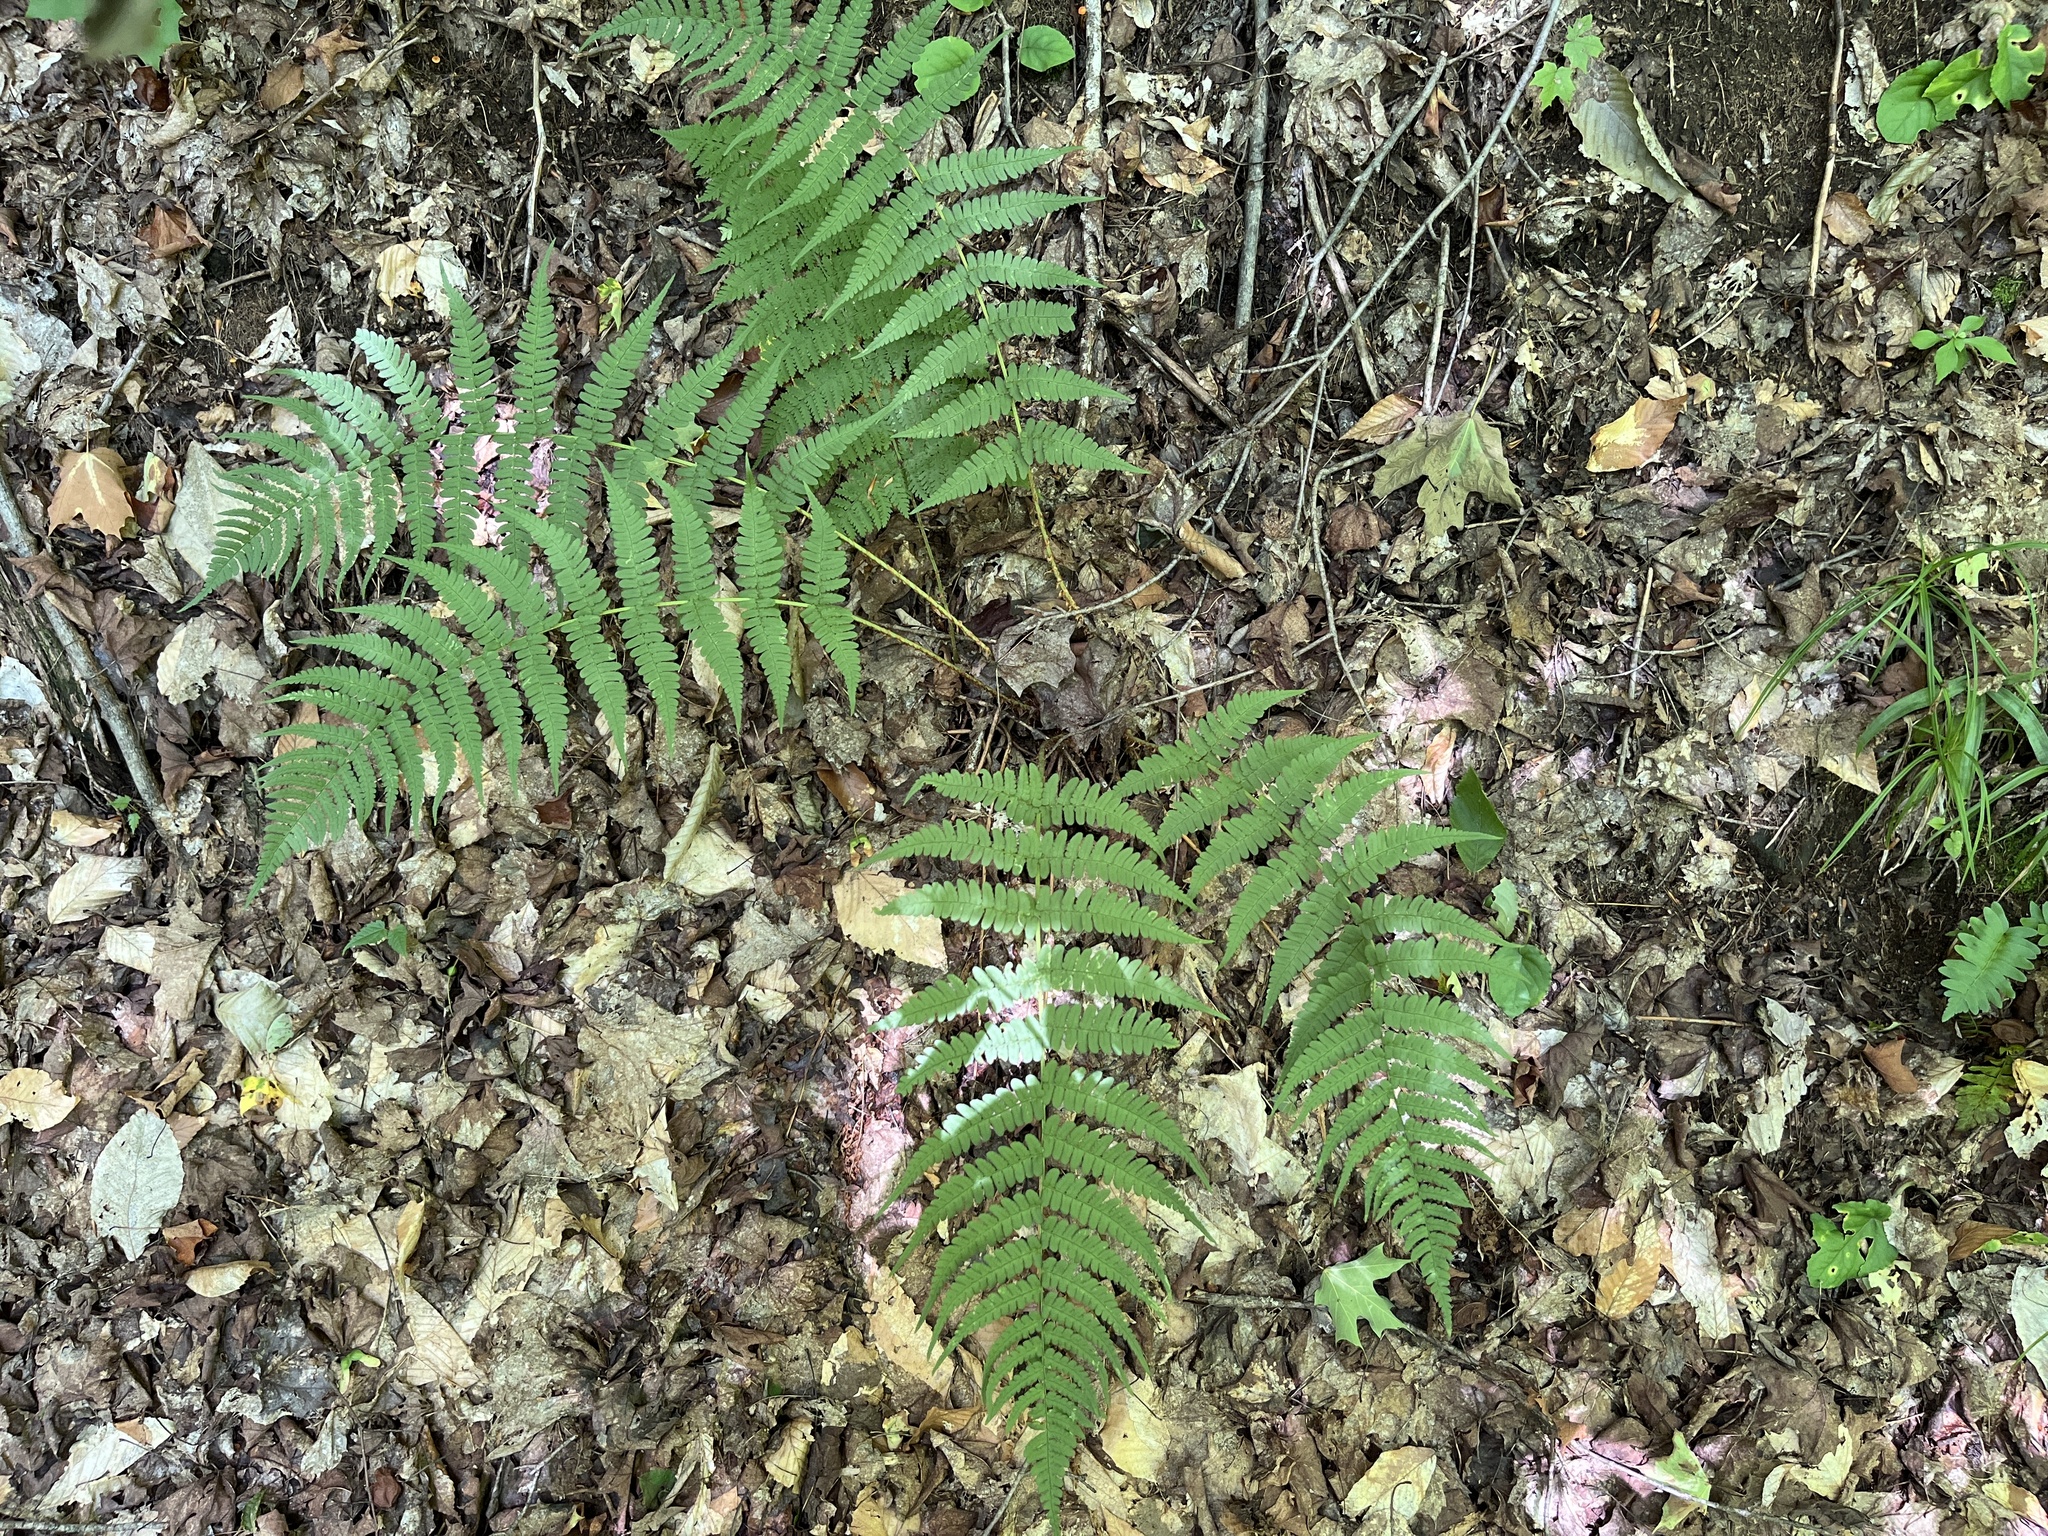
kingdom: Plantae
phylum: Tracheophyta
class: Polypodiopsida
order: Polypodiales
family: Dryopteridaceae
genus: Dryopteris
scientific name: Dryopteris marginalis
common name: Marginal wood fern
